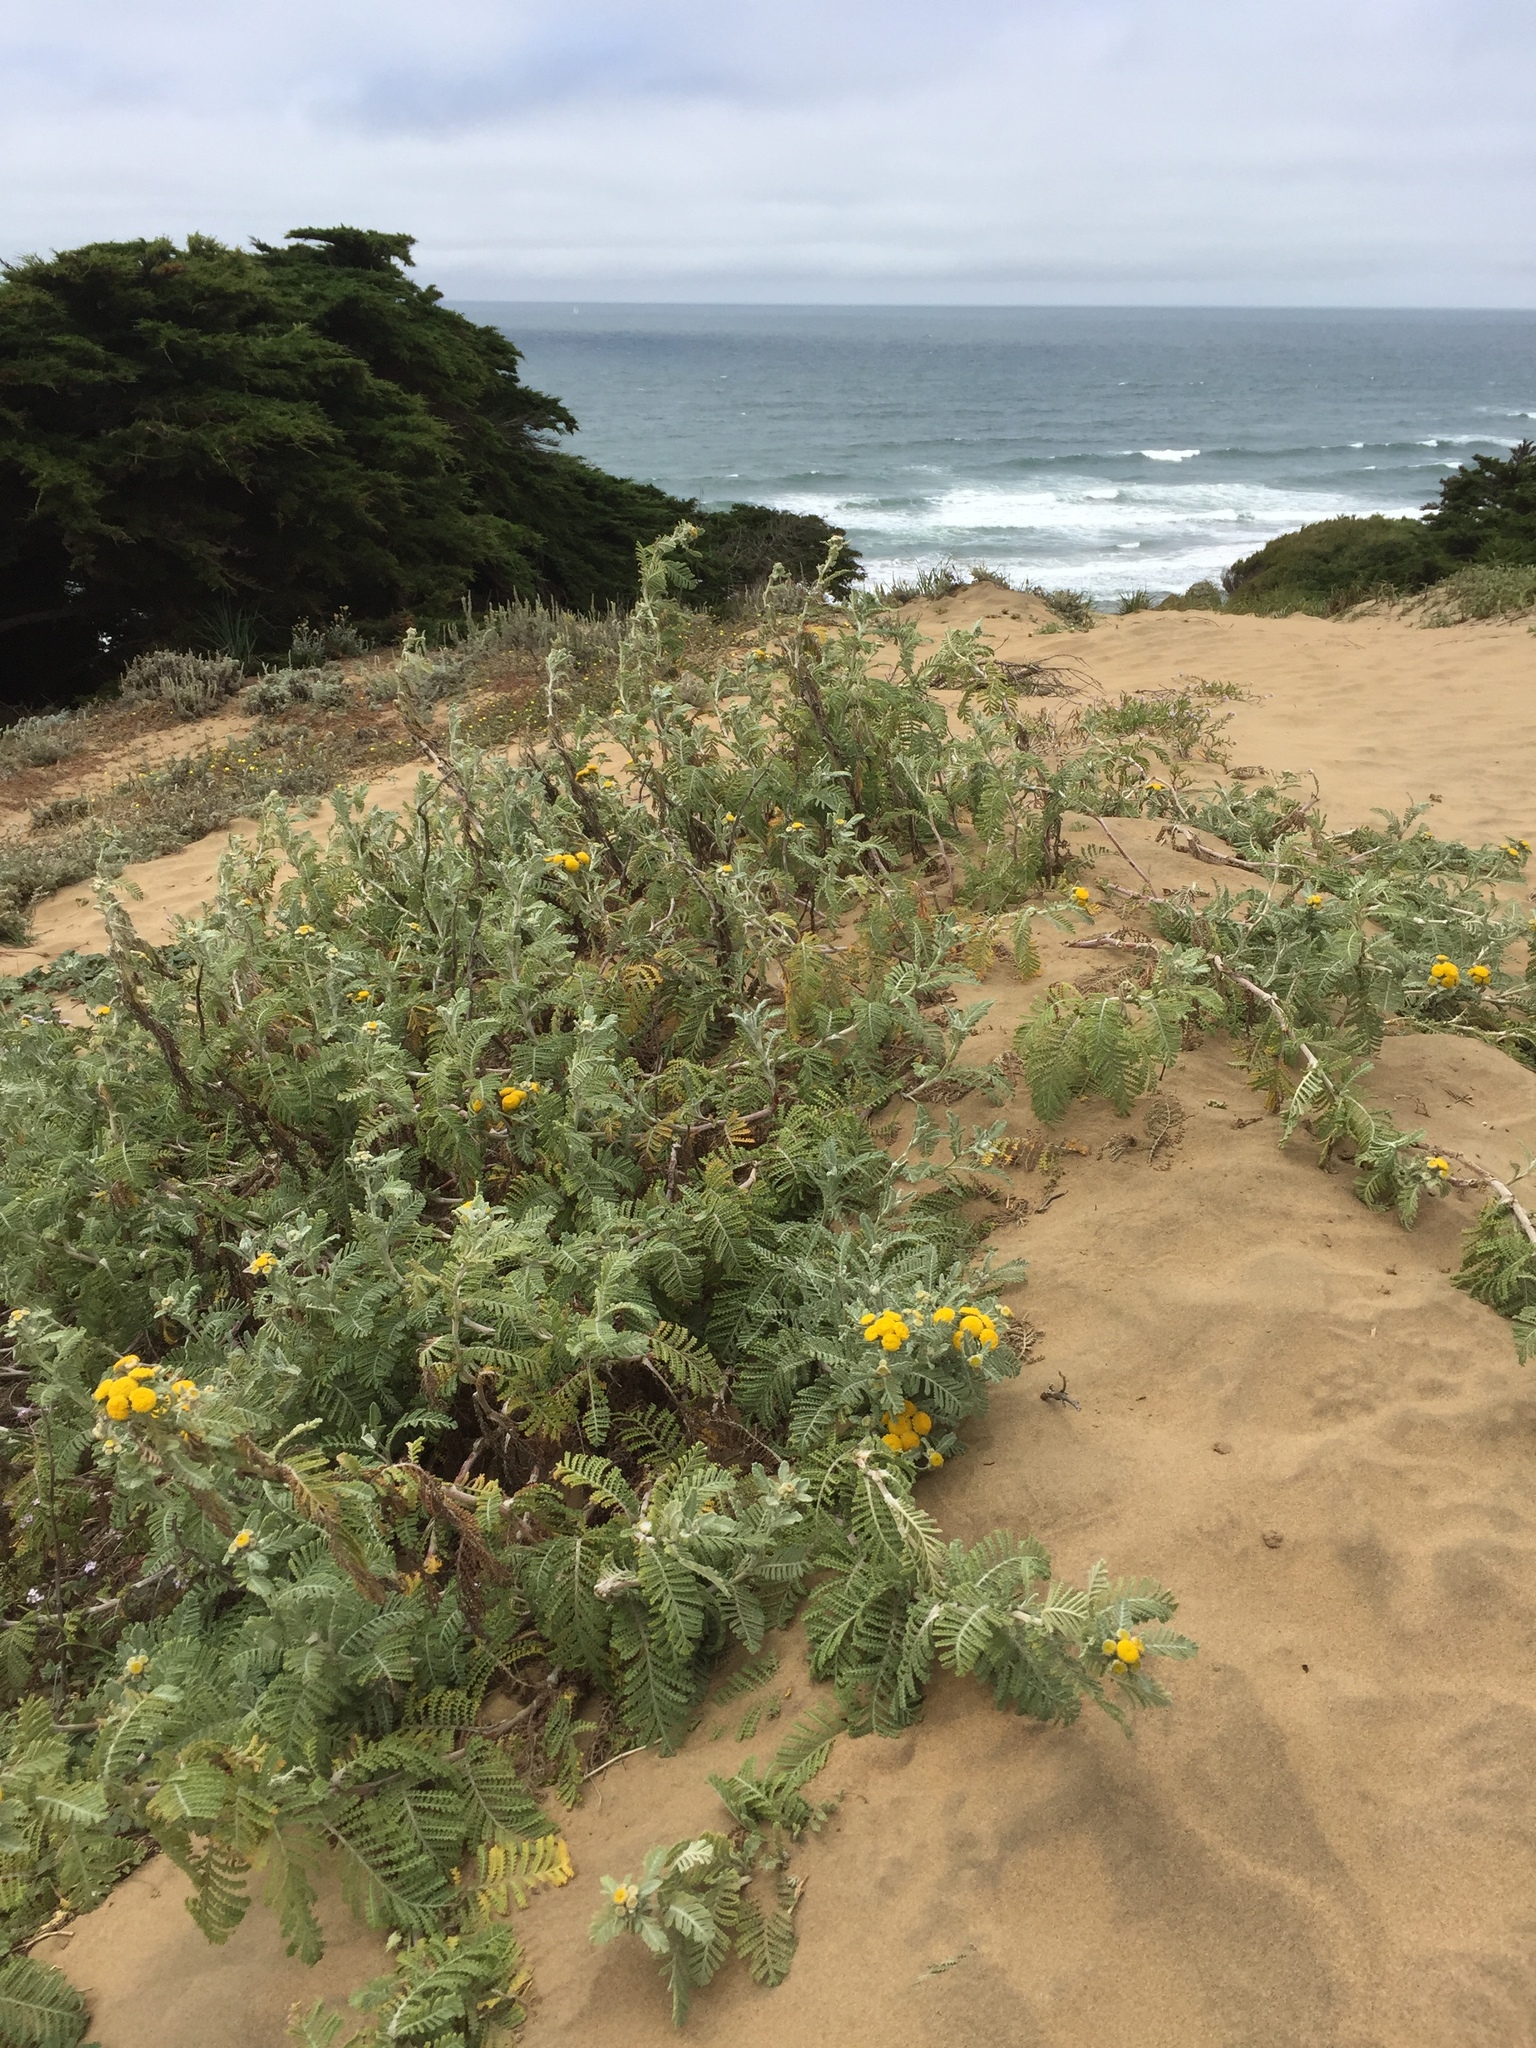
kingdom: Plantae
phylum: Tracheophyta
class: Magnoliopsida
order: Asterales
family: Asteraceae
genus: Tanacetum
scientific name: Tanacetum bipinnatum
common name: Dwarf tansy
